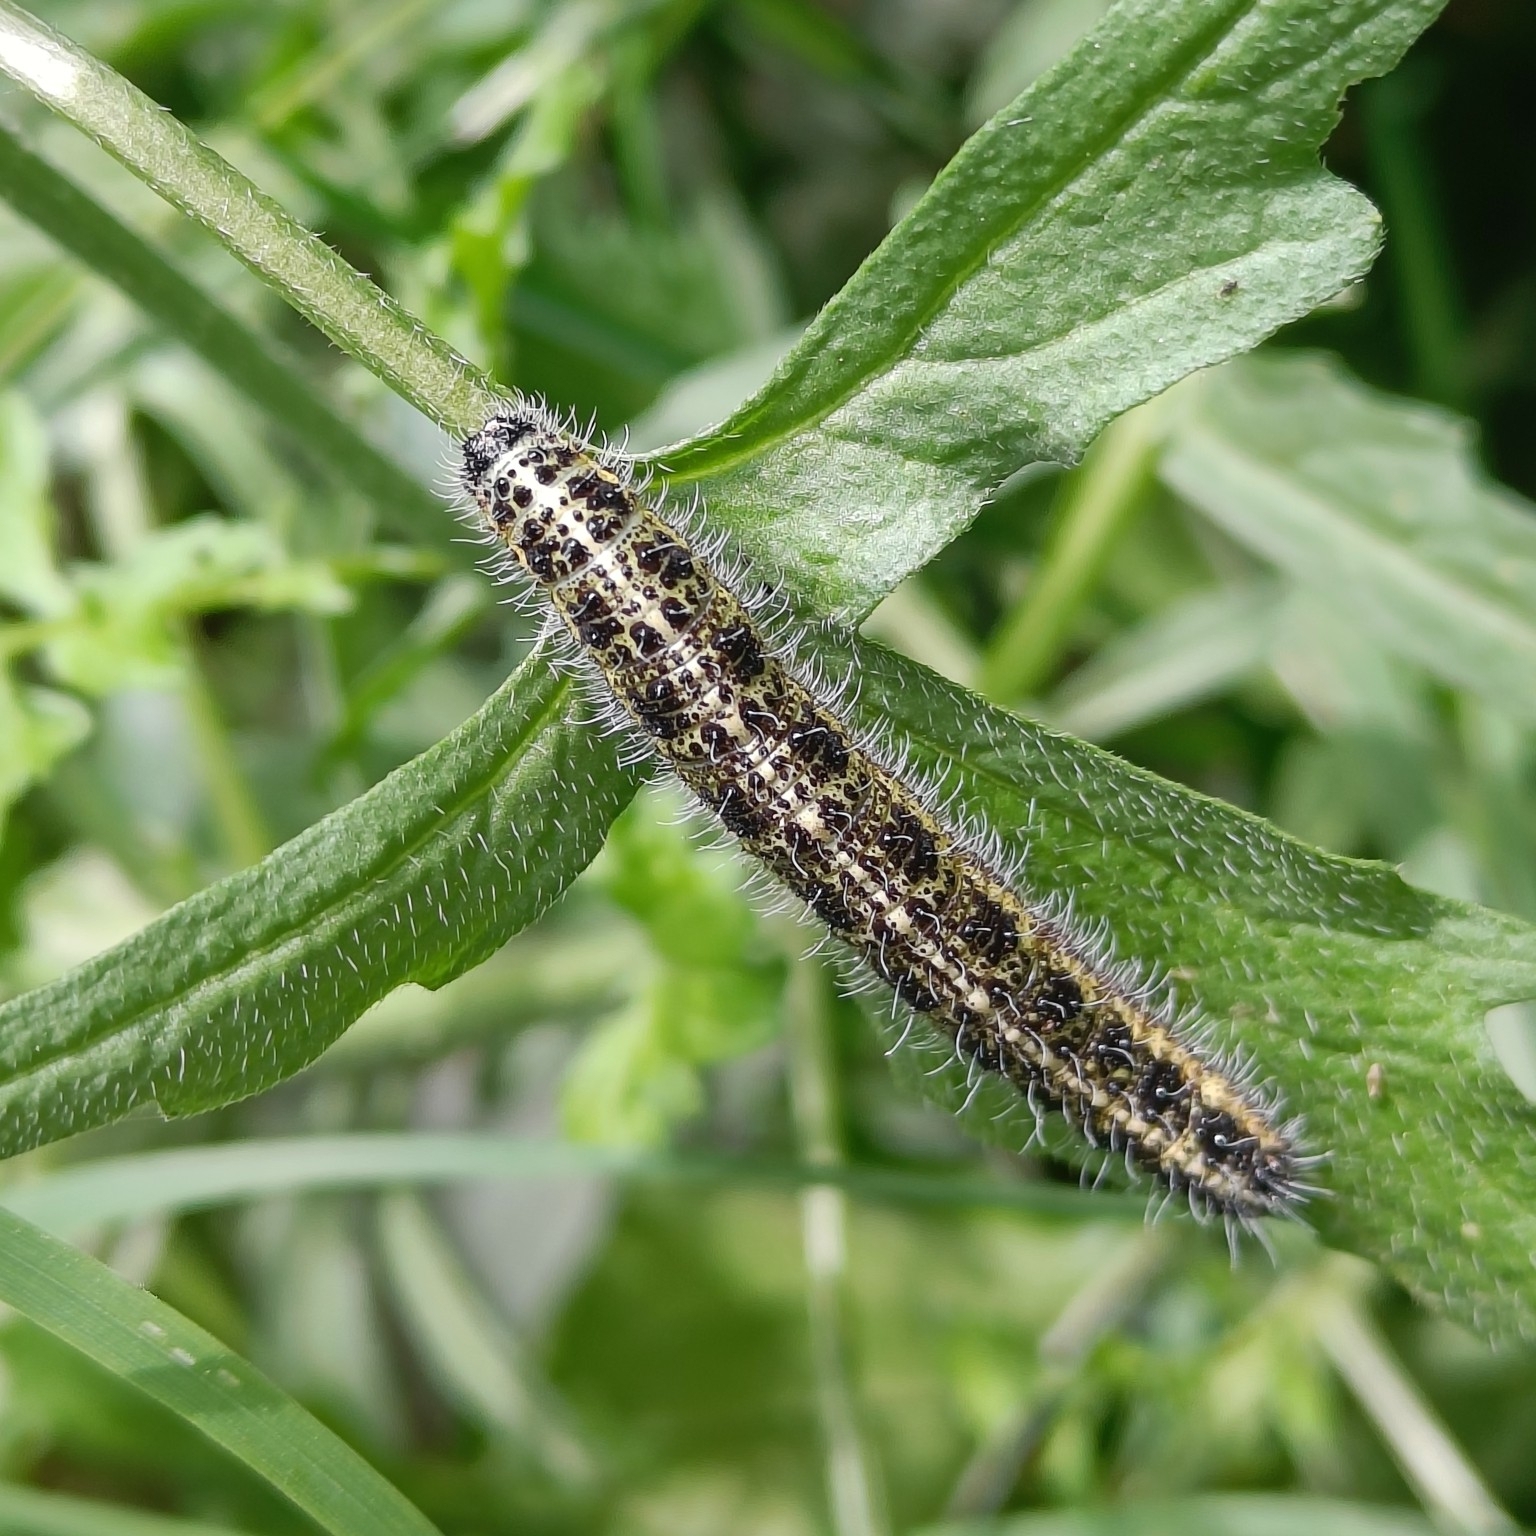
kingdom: Animalia
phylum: Arthropoda
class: Insecta
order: Lepidoptera
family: Pieridae
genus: Pieris
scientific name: Pieris brassicae
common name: Large white
